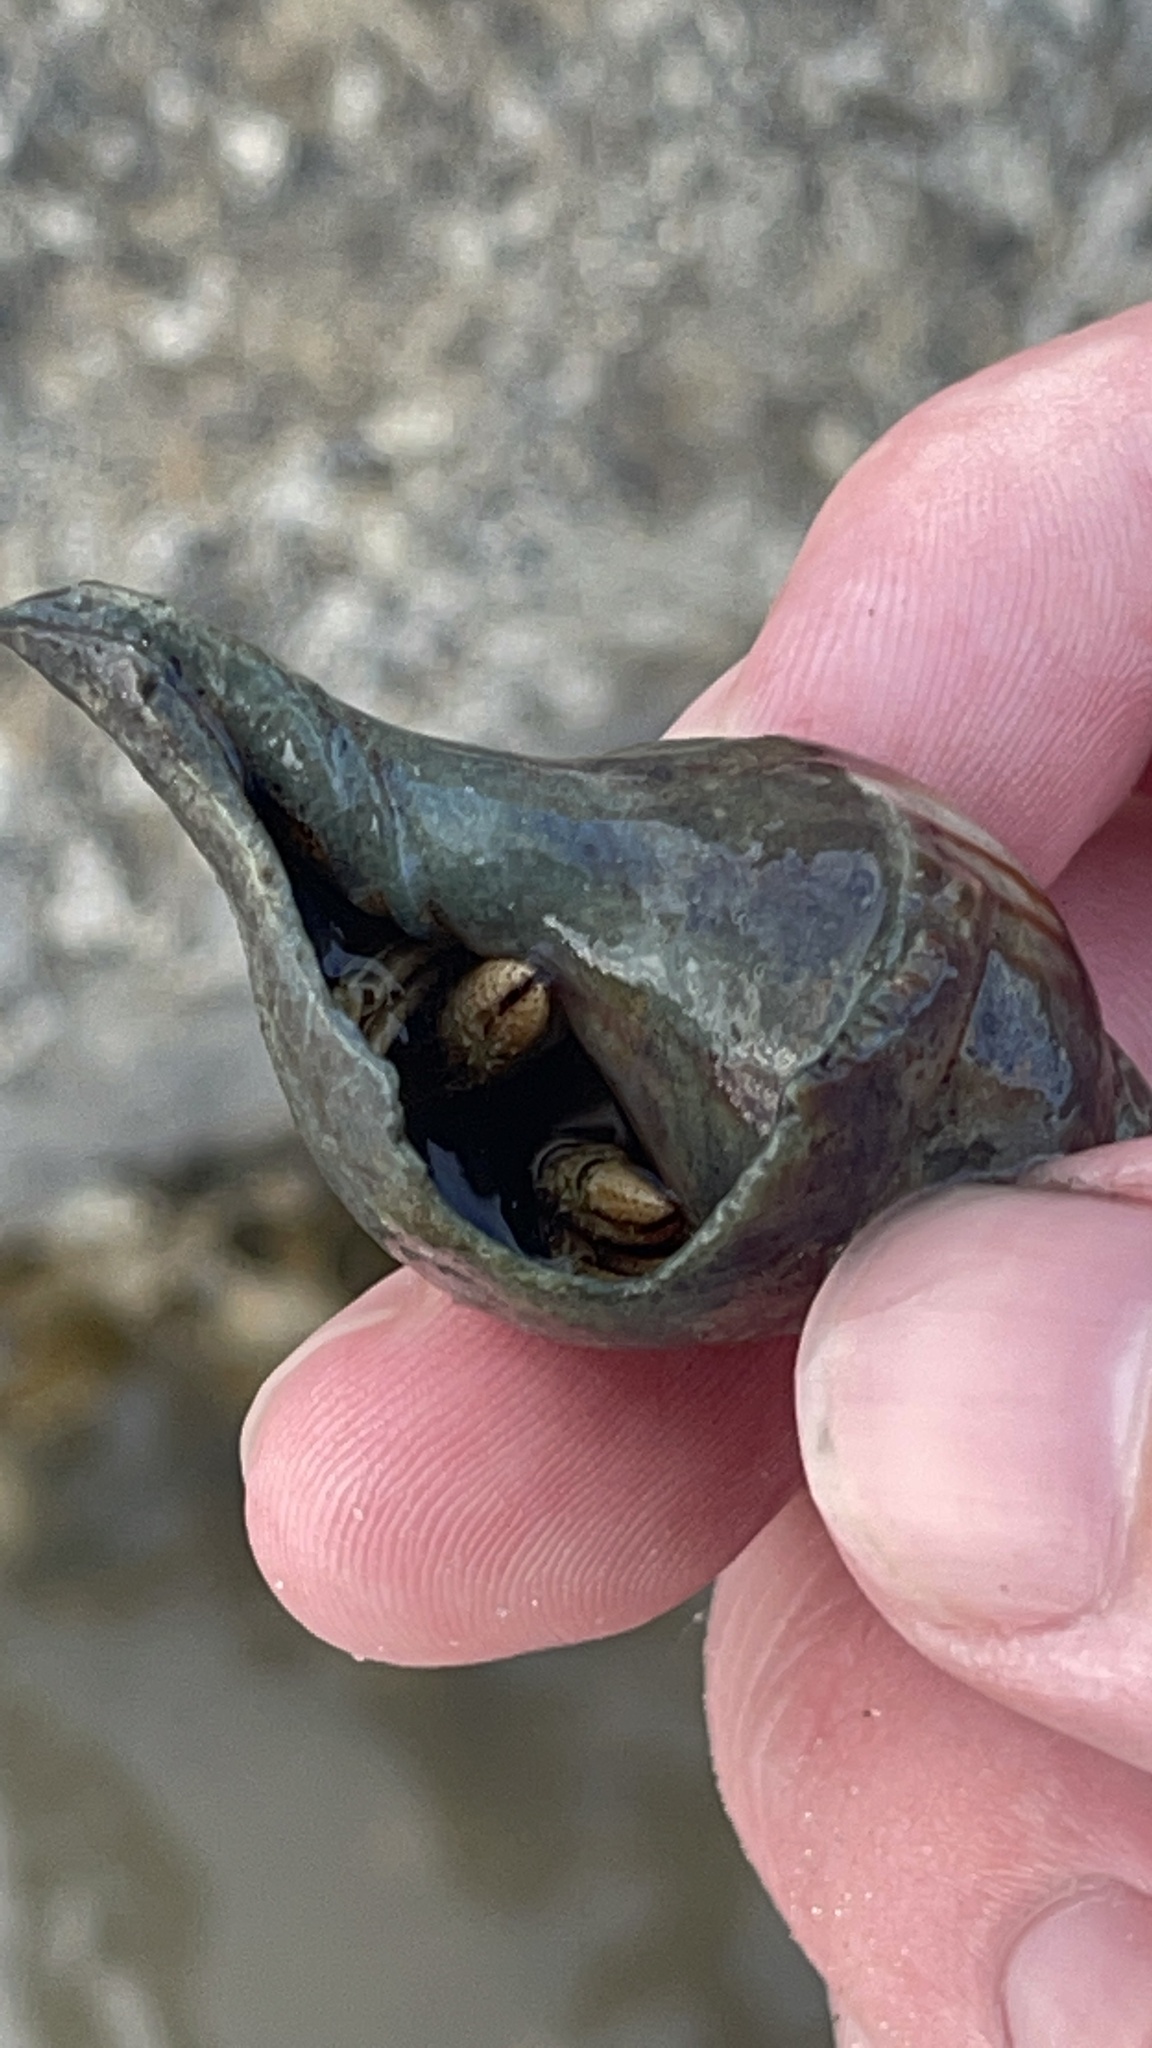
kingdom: Animalia
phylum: Mollusca
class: Gastropoda
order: Neogastropoda
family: Busyconidae
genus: Busycon
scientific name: Busycon carica
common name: Knobbed whelk
